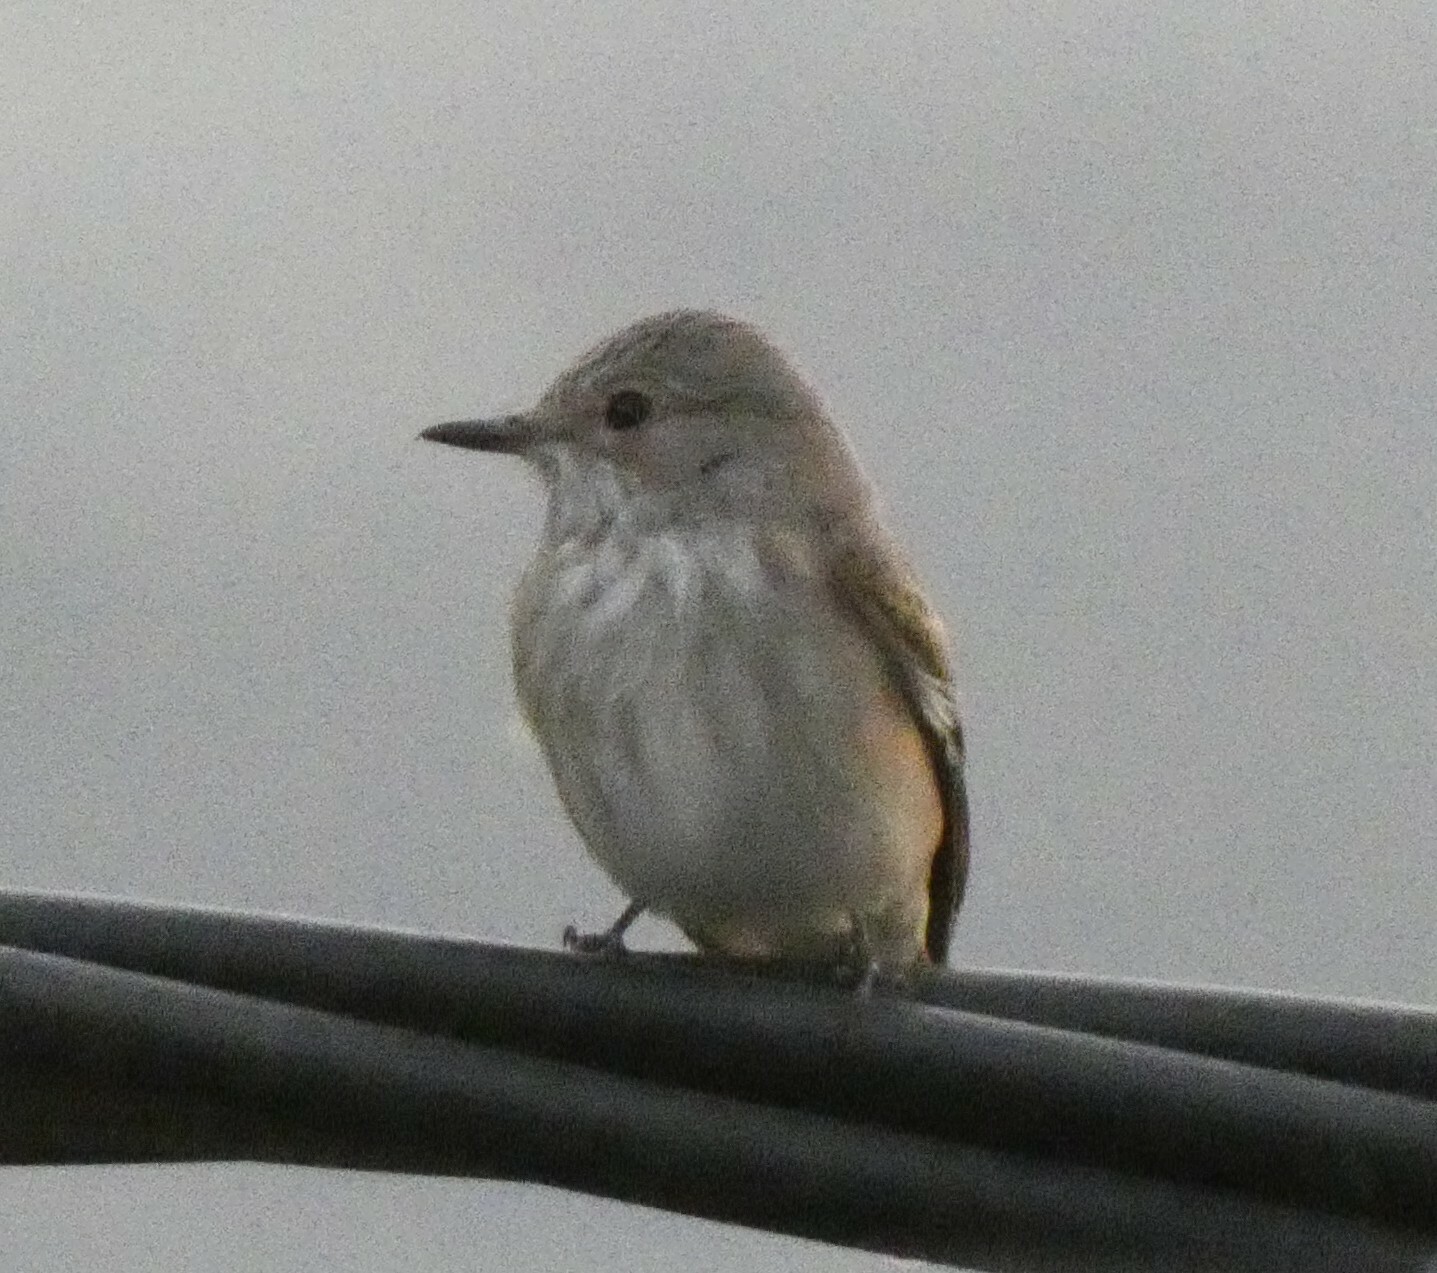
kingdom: Animalia
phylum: Chordata
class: Aves
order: Passeriformes
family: Muscicapidae
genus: Muscicapa
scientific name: Muscicapa striata
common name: Spotted flycatcher
